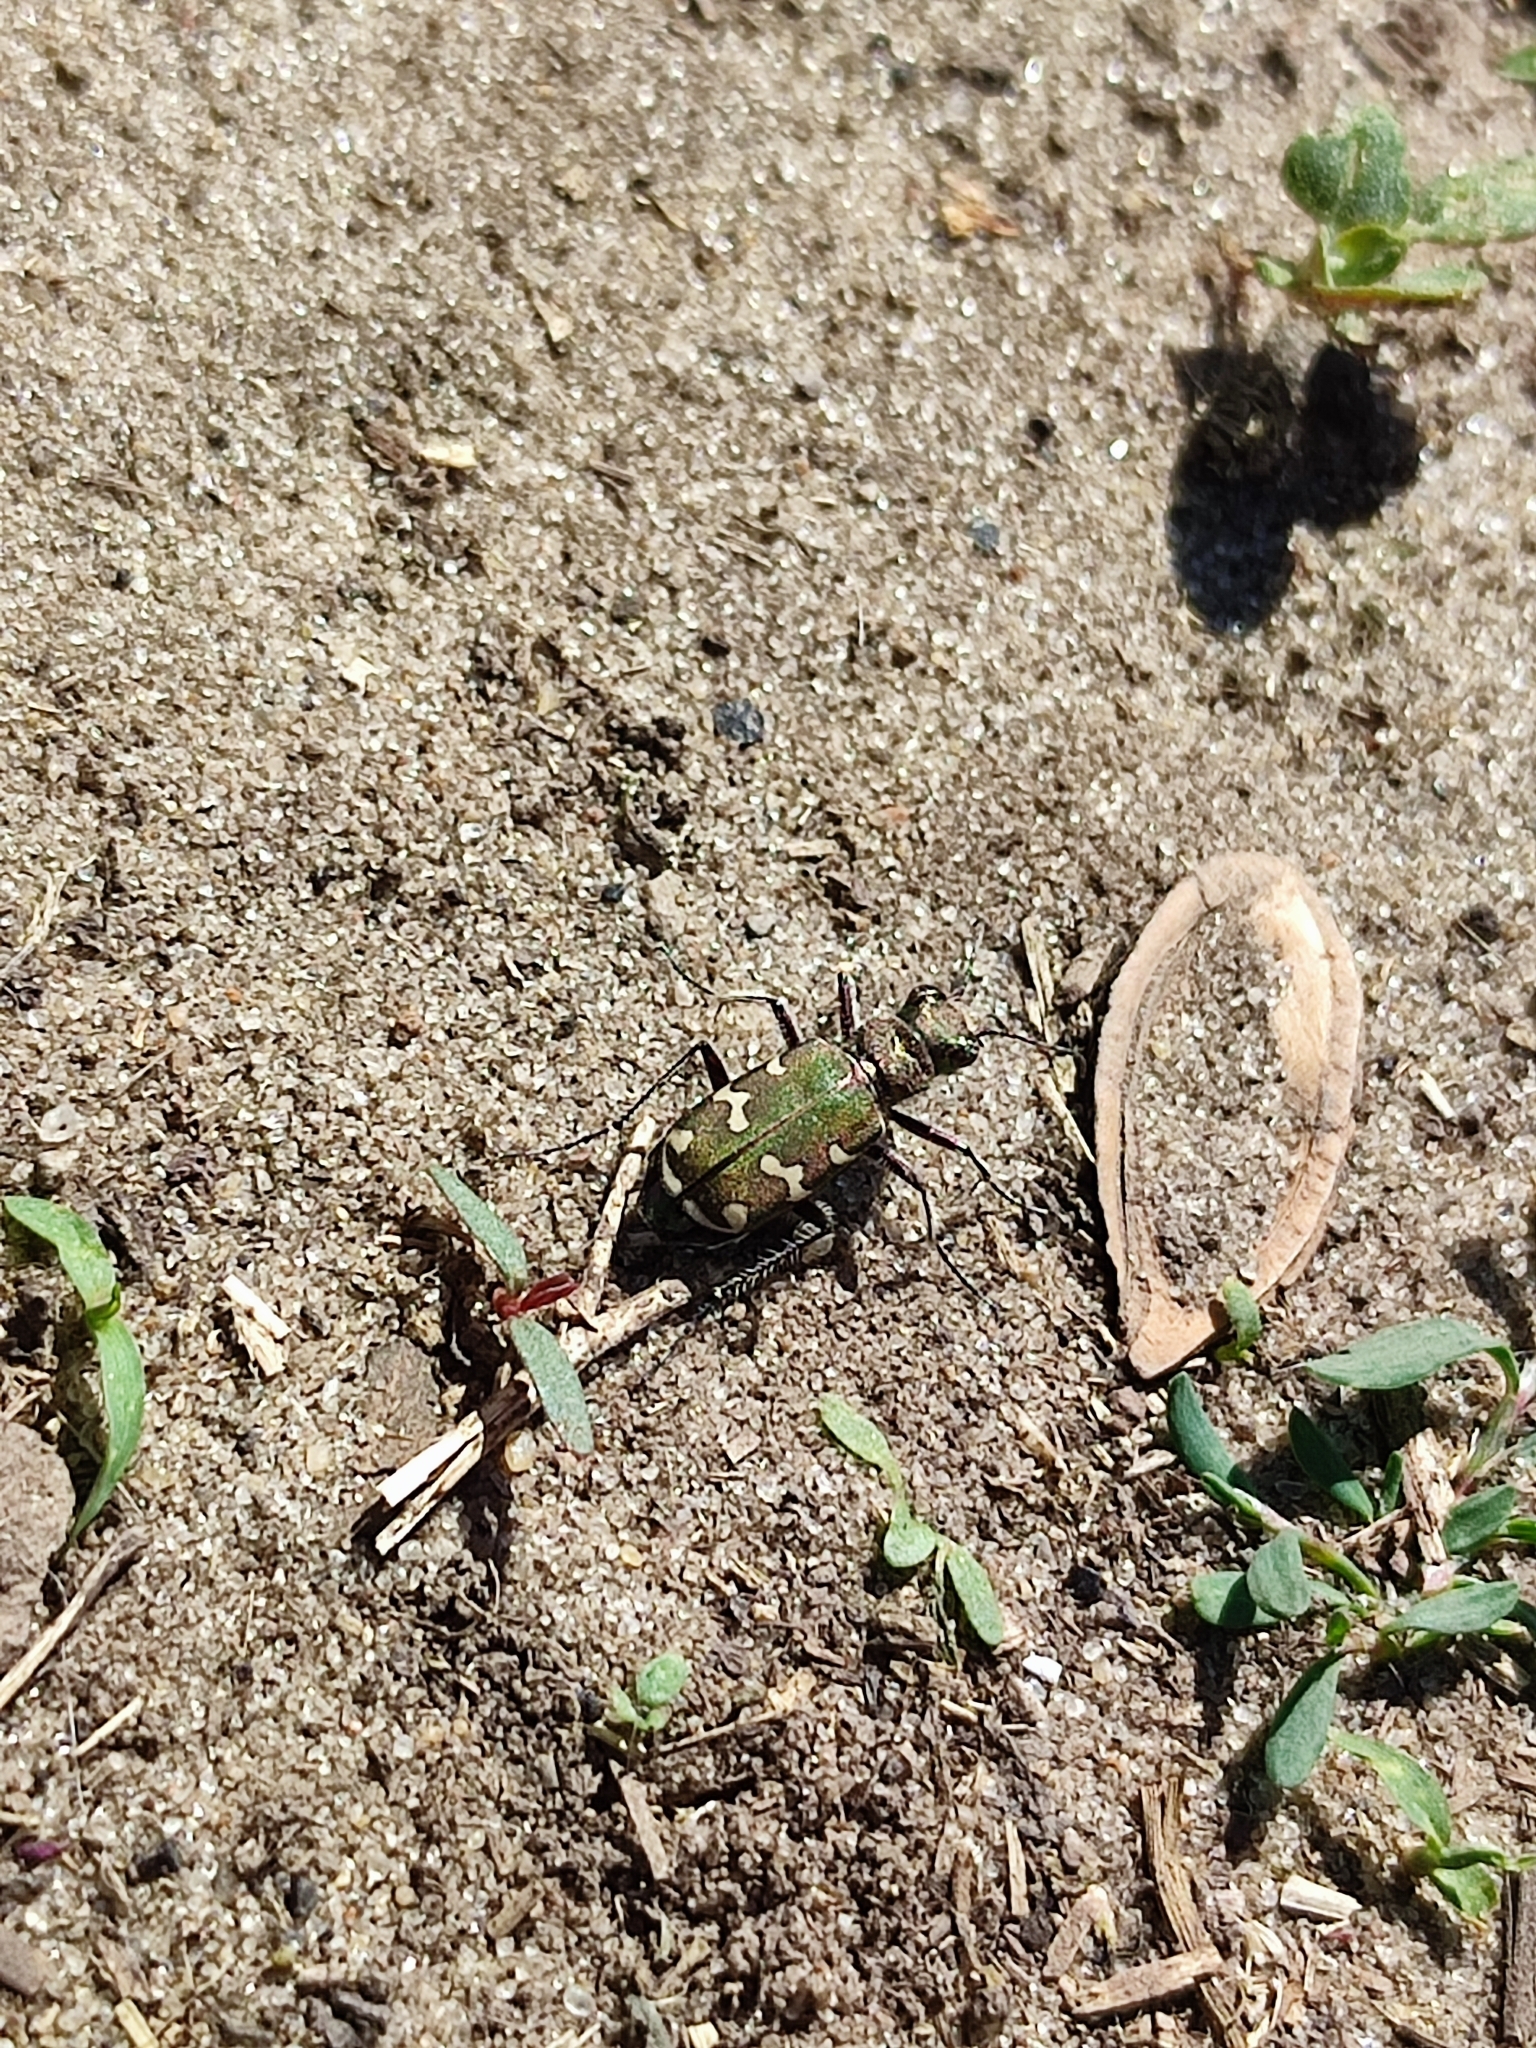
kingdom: Animalia
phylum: Arthropoda
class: Insecta
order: Coleoptera
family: Carabidae
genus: Cicindela
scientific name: Cicindela soluta
